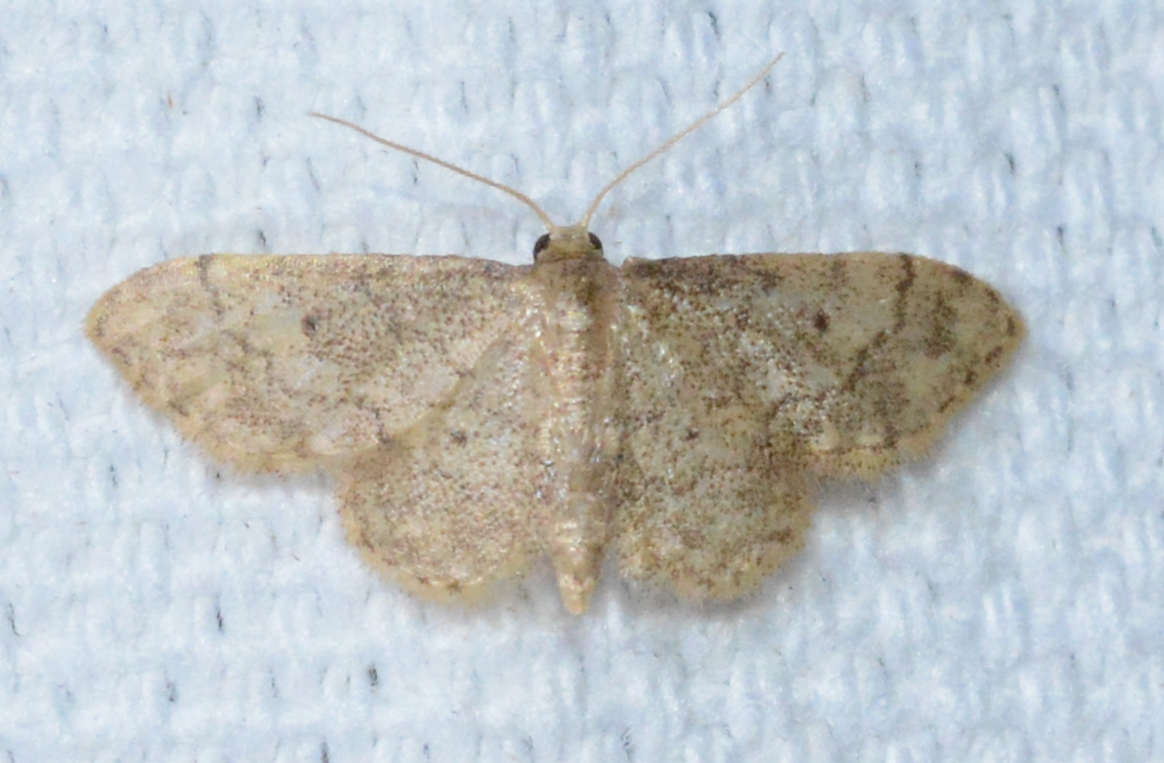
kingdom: Animalia
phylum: Arthropoda
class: Insecta
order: Lepidoptera
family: Geometridae
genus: Idaea
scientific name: Idaea celtima
